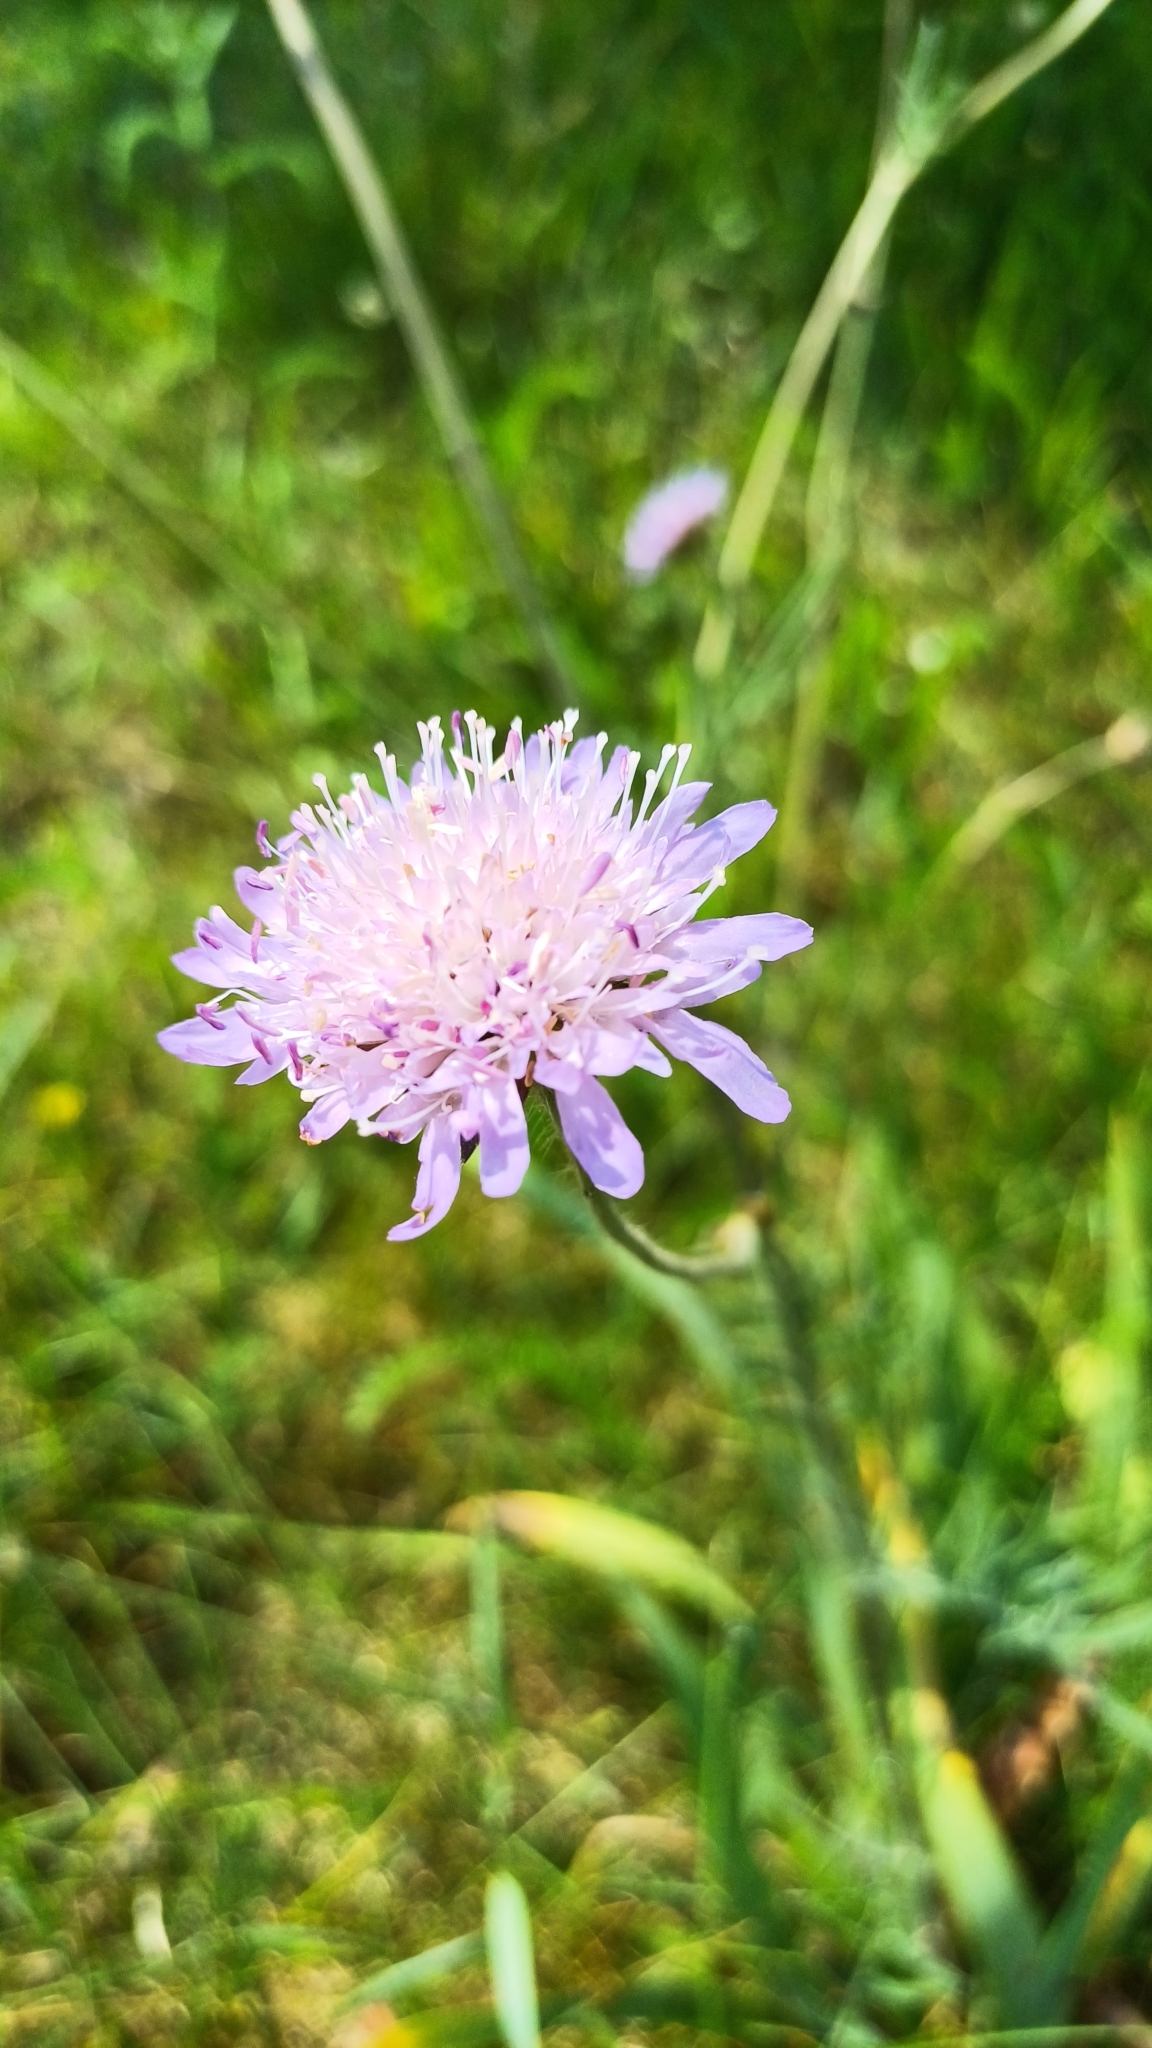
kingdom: Plantae
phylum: Tracheophyta
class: Magnoliopsida
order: Dipsacales
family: Caprifoliaceae
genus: Knautia
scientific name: Knautia arvensis
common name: Field scabiosa
